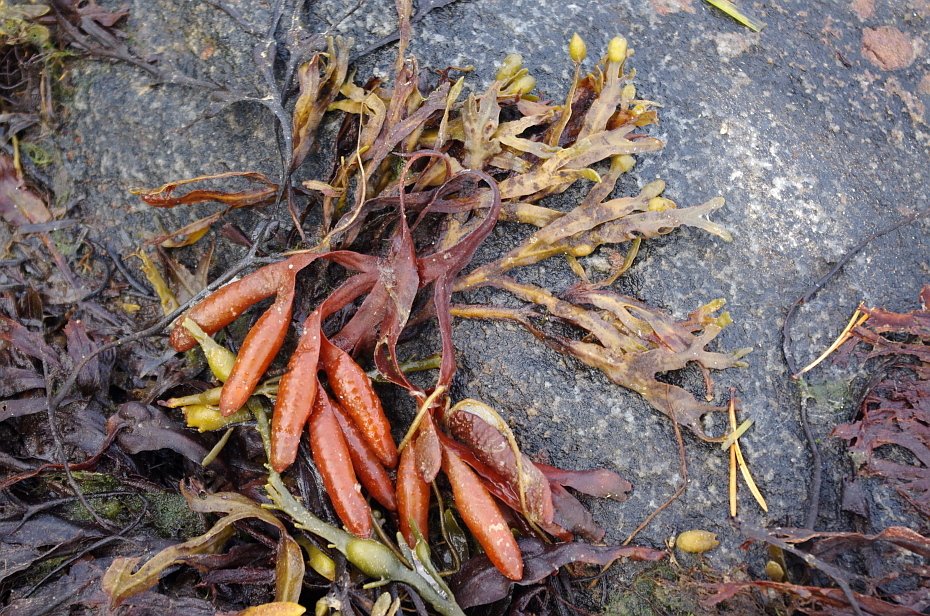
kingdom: Chromista
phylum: Ochrophyta
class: Phaeophyceae
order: Fucales
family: Fucaceae
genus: Fucus
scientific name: Fucus distichus
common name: Rockweed
